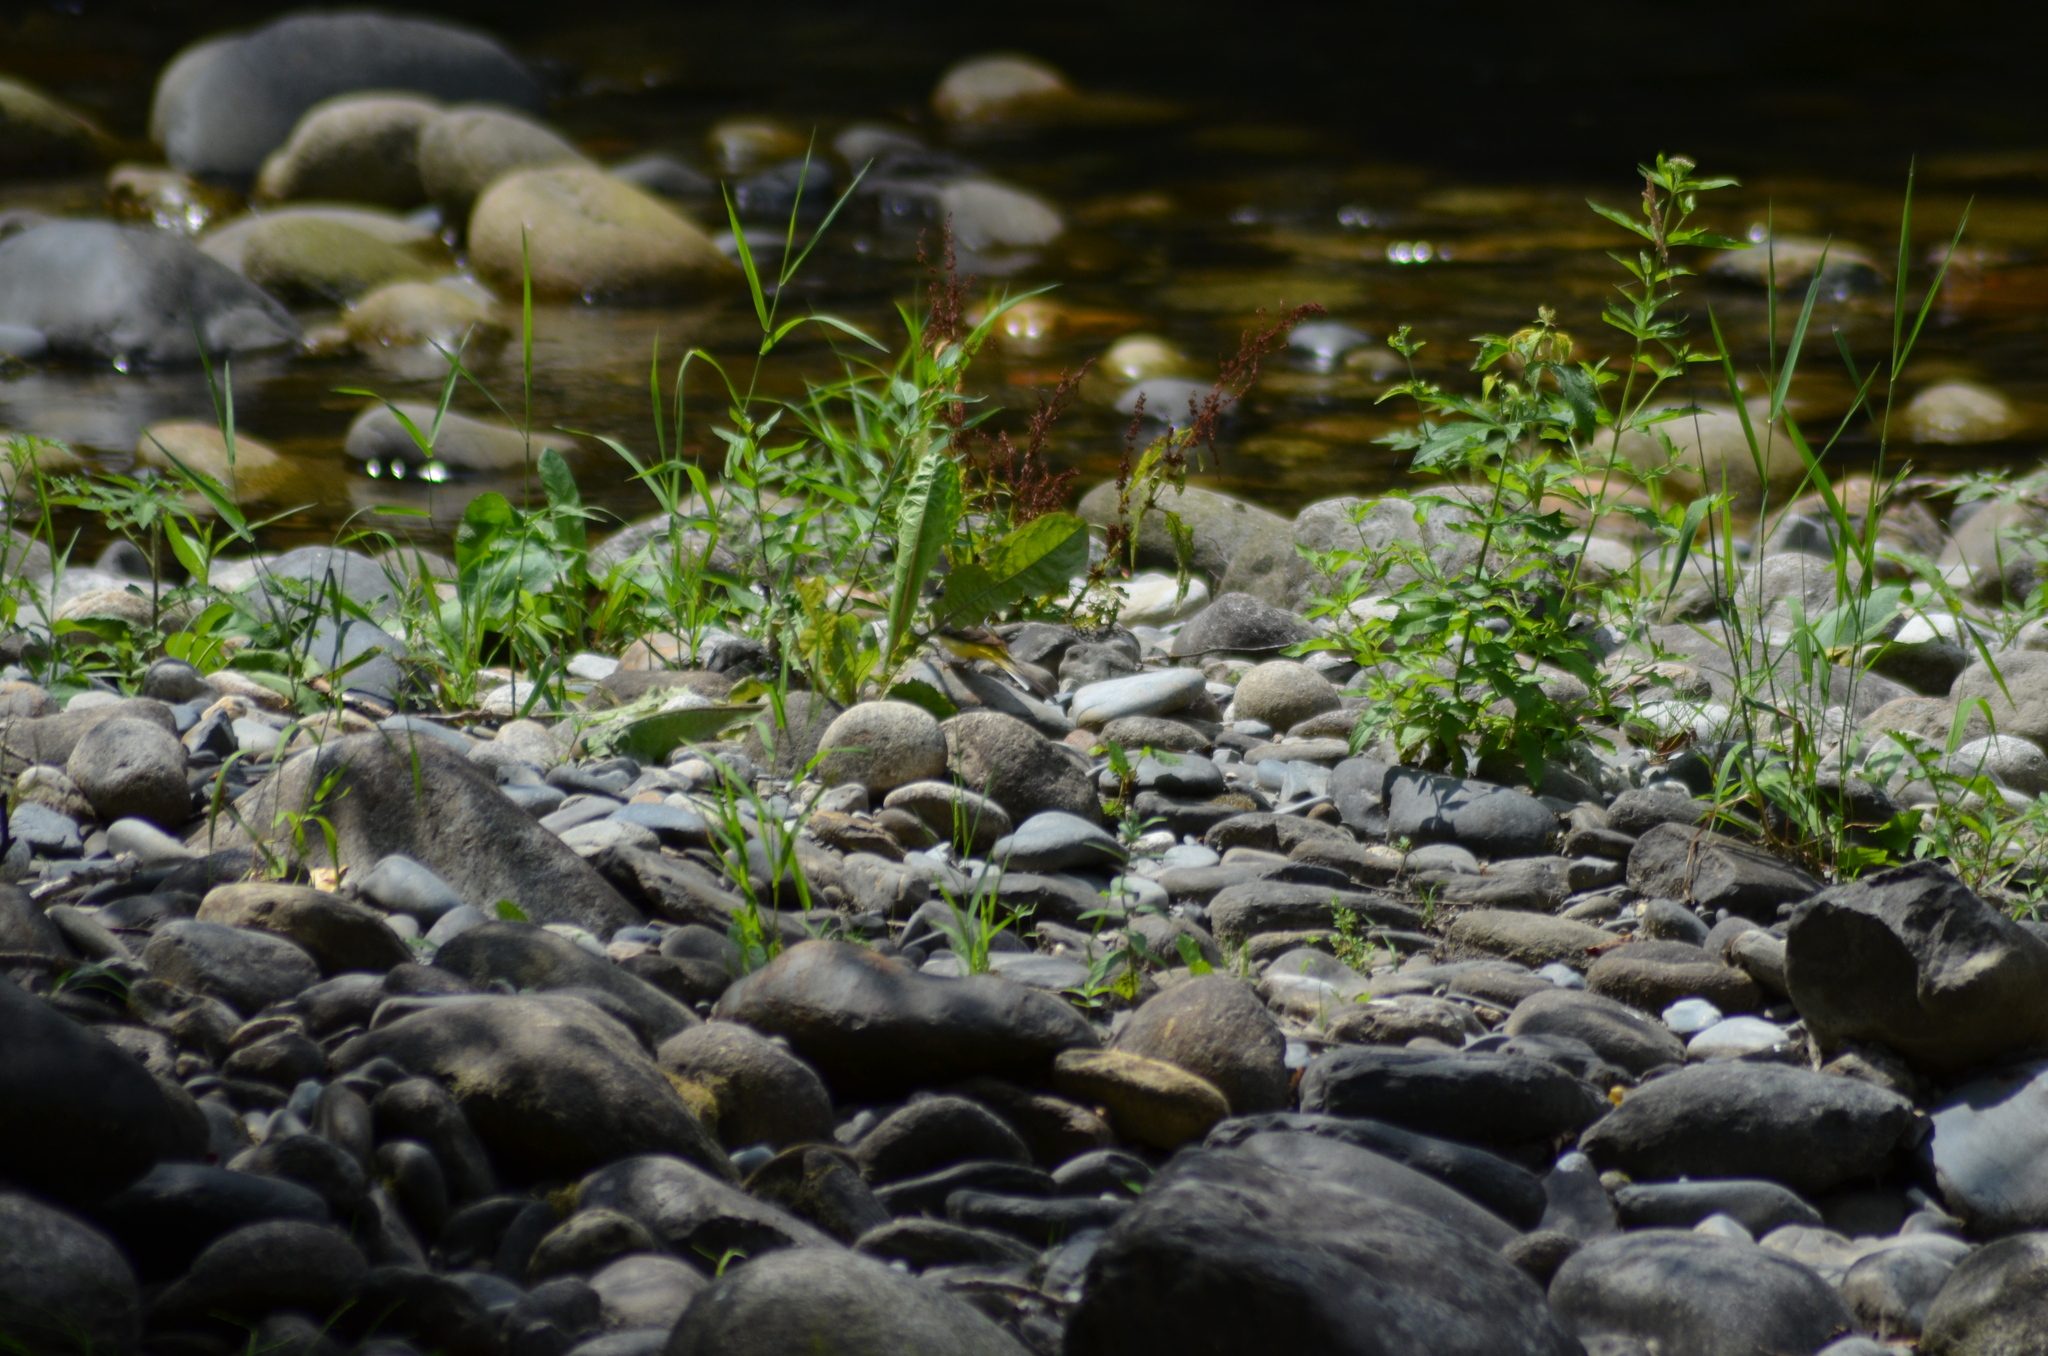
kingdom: Animalia
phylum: Chordata
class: Aves
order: Passeriformes
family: Motacillidae
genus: Motacilla
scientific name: Motacilla cinerea
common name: Grey wagtail
